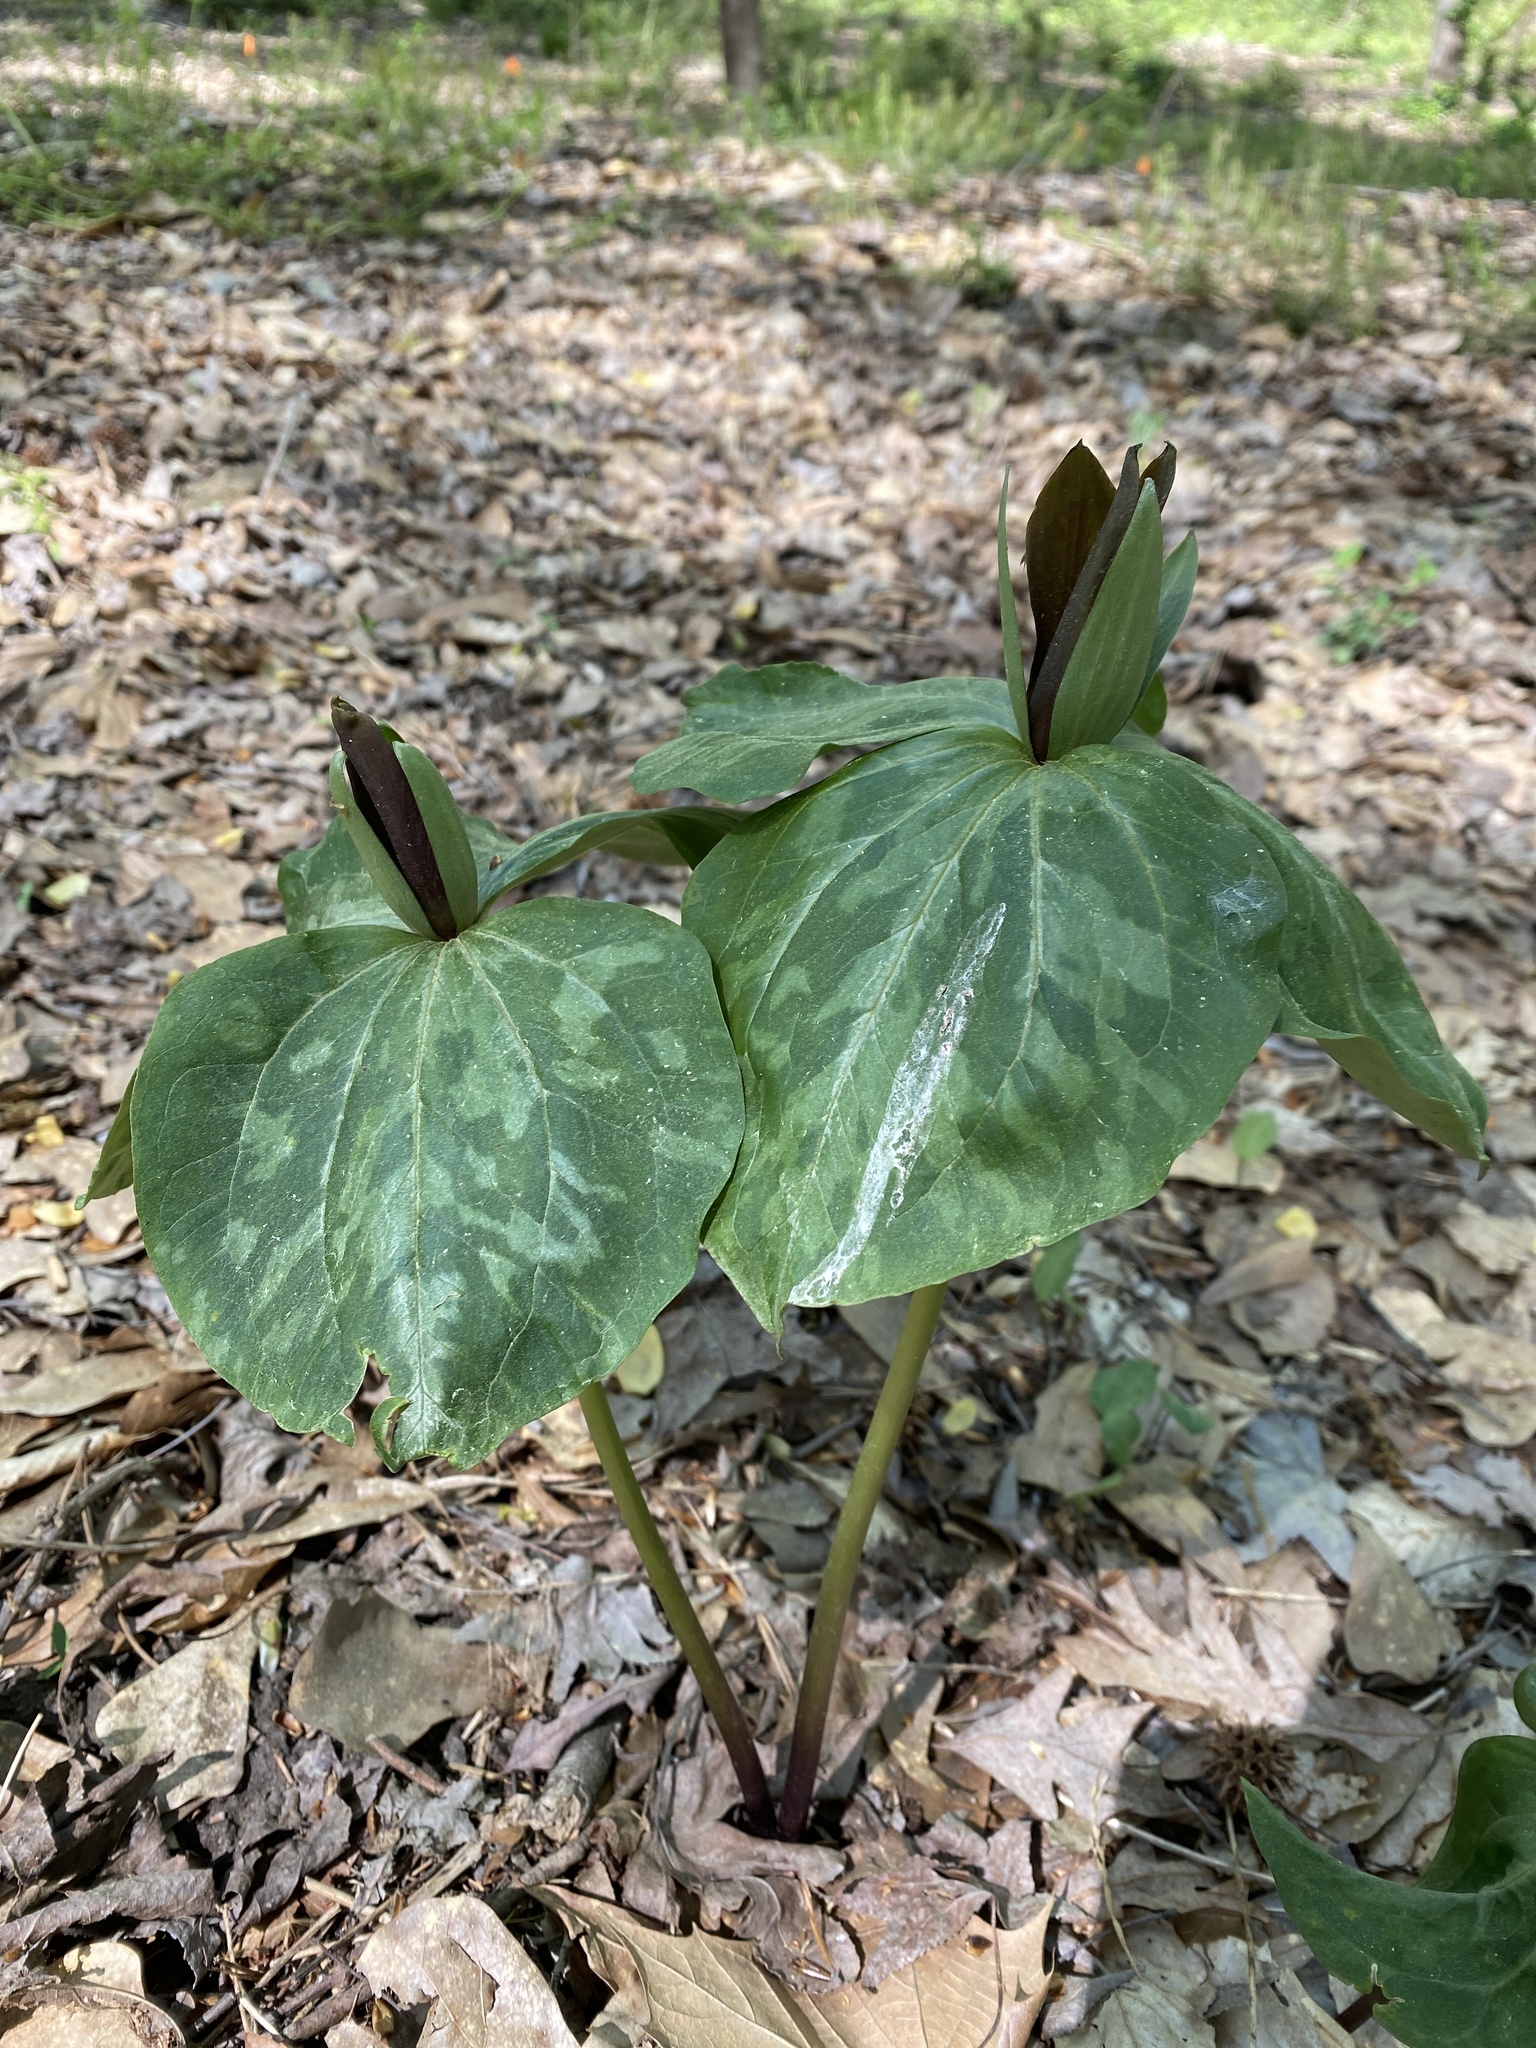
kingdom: Plantae
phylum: Tracheophyta
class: Liliopsida
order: Liliales
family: Melanthiaceae
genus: Trillium
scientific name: Trillium cuneatum
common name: Cuneate trillium
